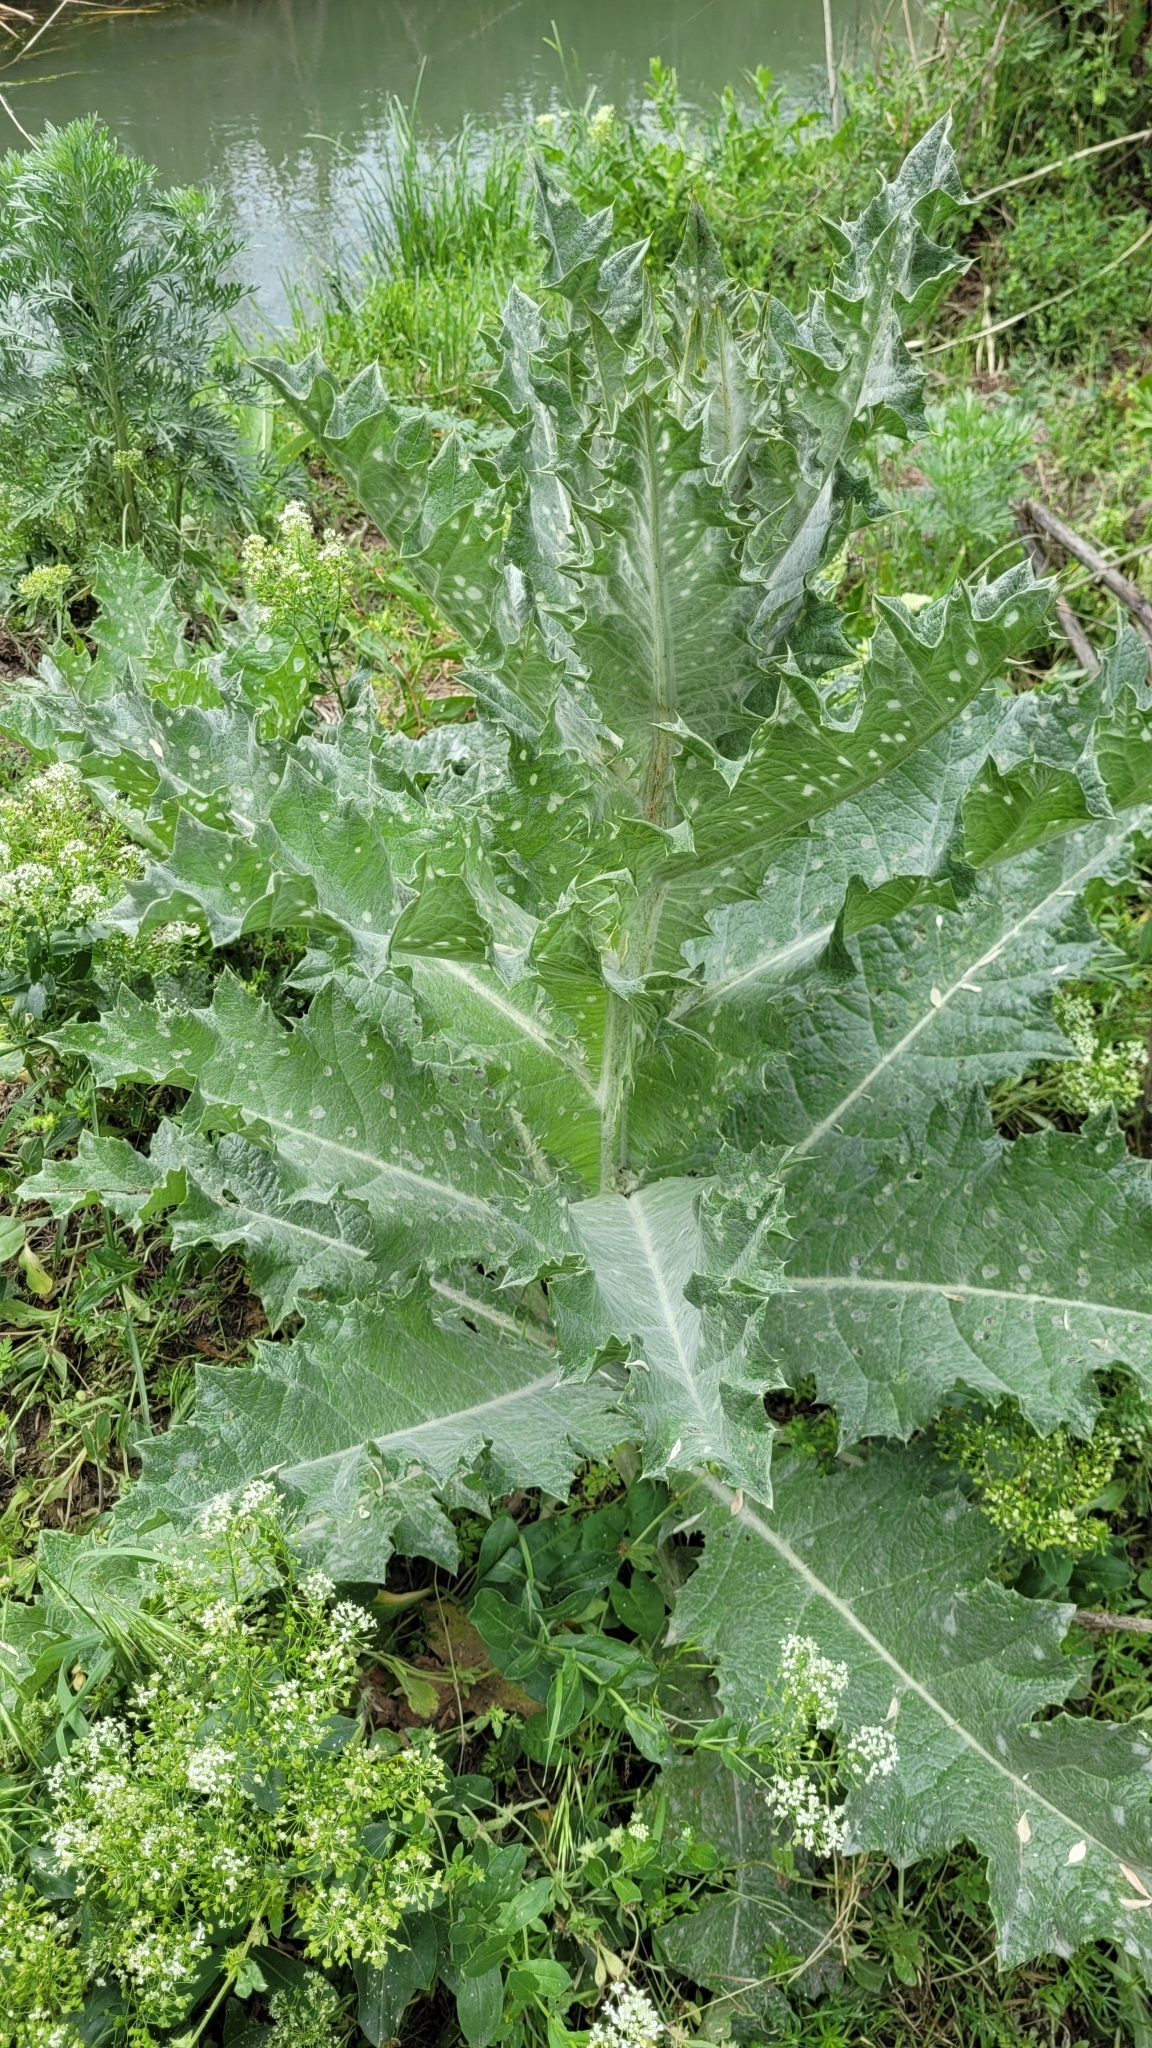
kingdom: Plantae
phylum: Tracheophyta
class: Magnoliopsida
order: Asterales
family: Asteraceae
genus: Onopordum
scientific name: Onopordum acanthium
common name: Scotch thistle
